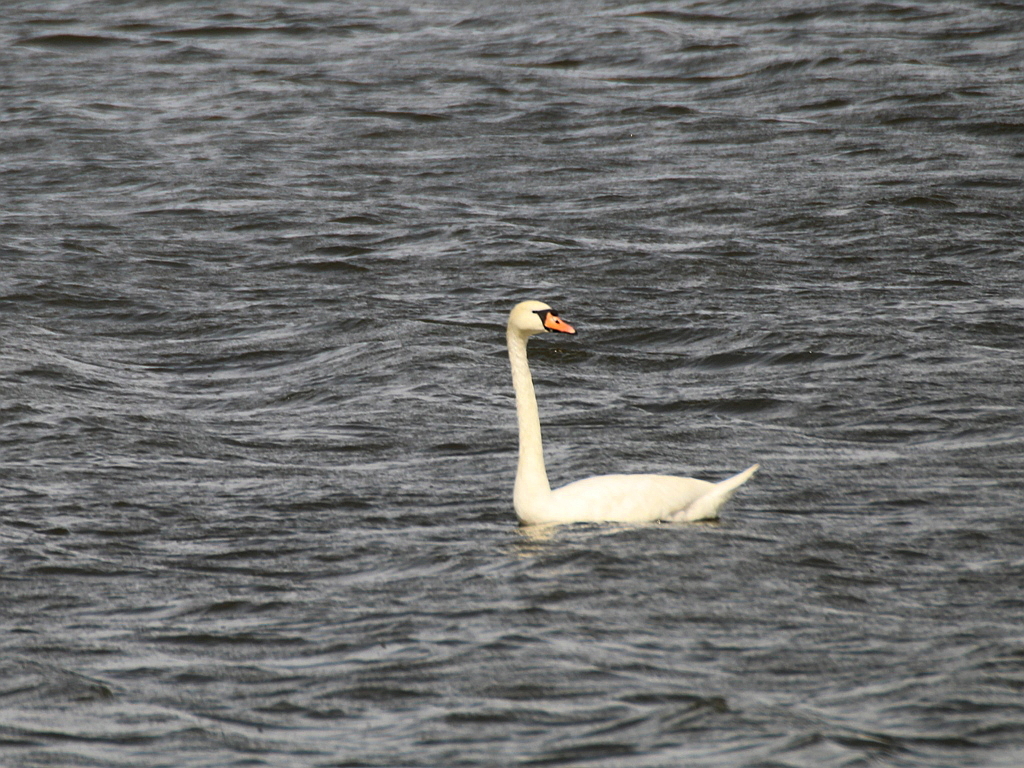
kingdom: Animalia
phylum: Chordata
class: Aves
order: Anseriformes
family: Anatidae
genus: Cygnus
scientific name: Cygnus olor
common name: Mute swan
